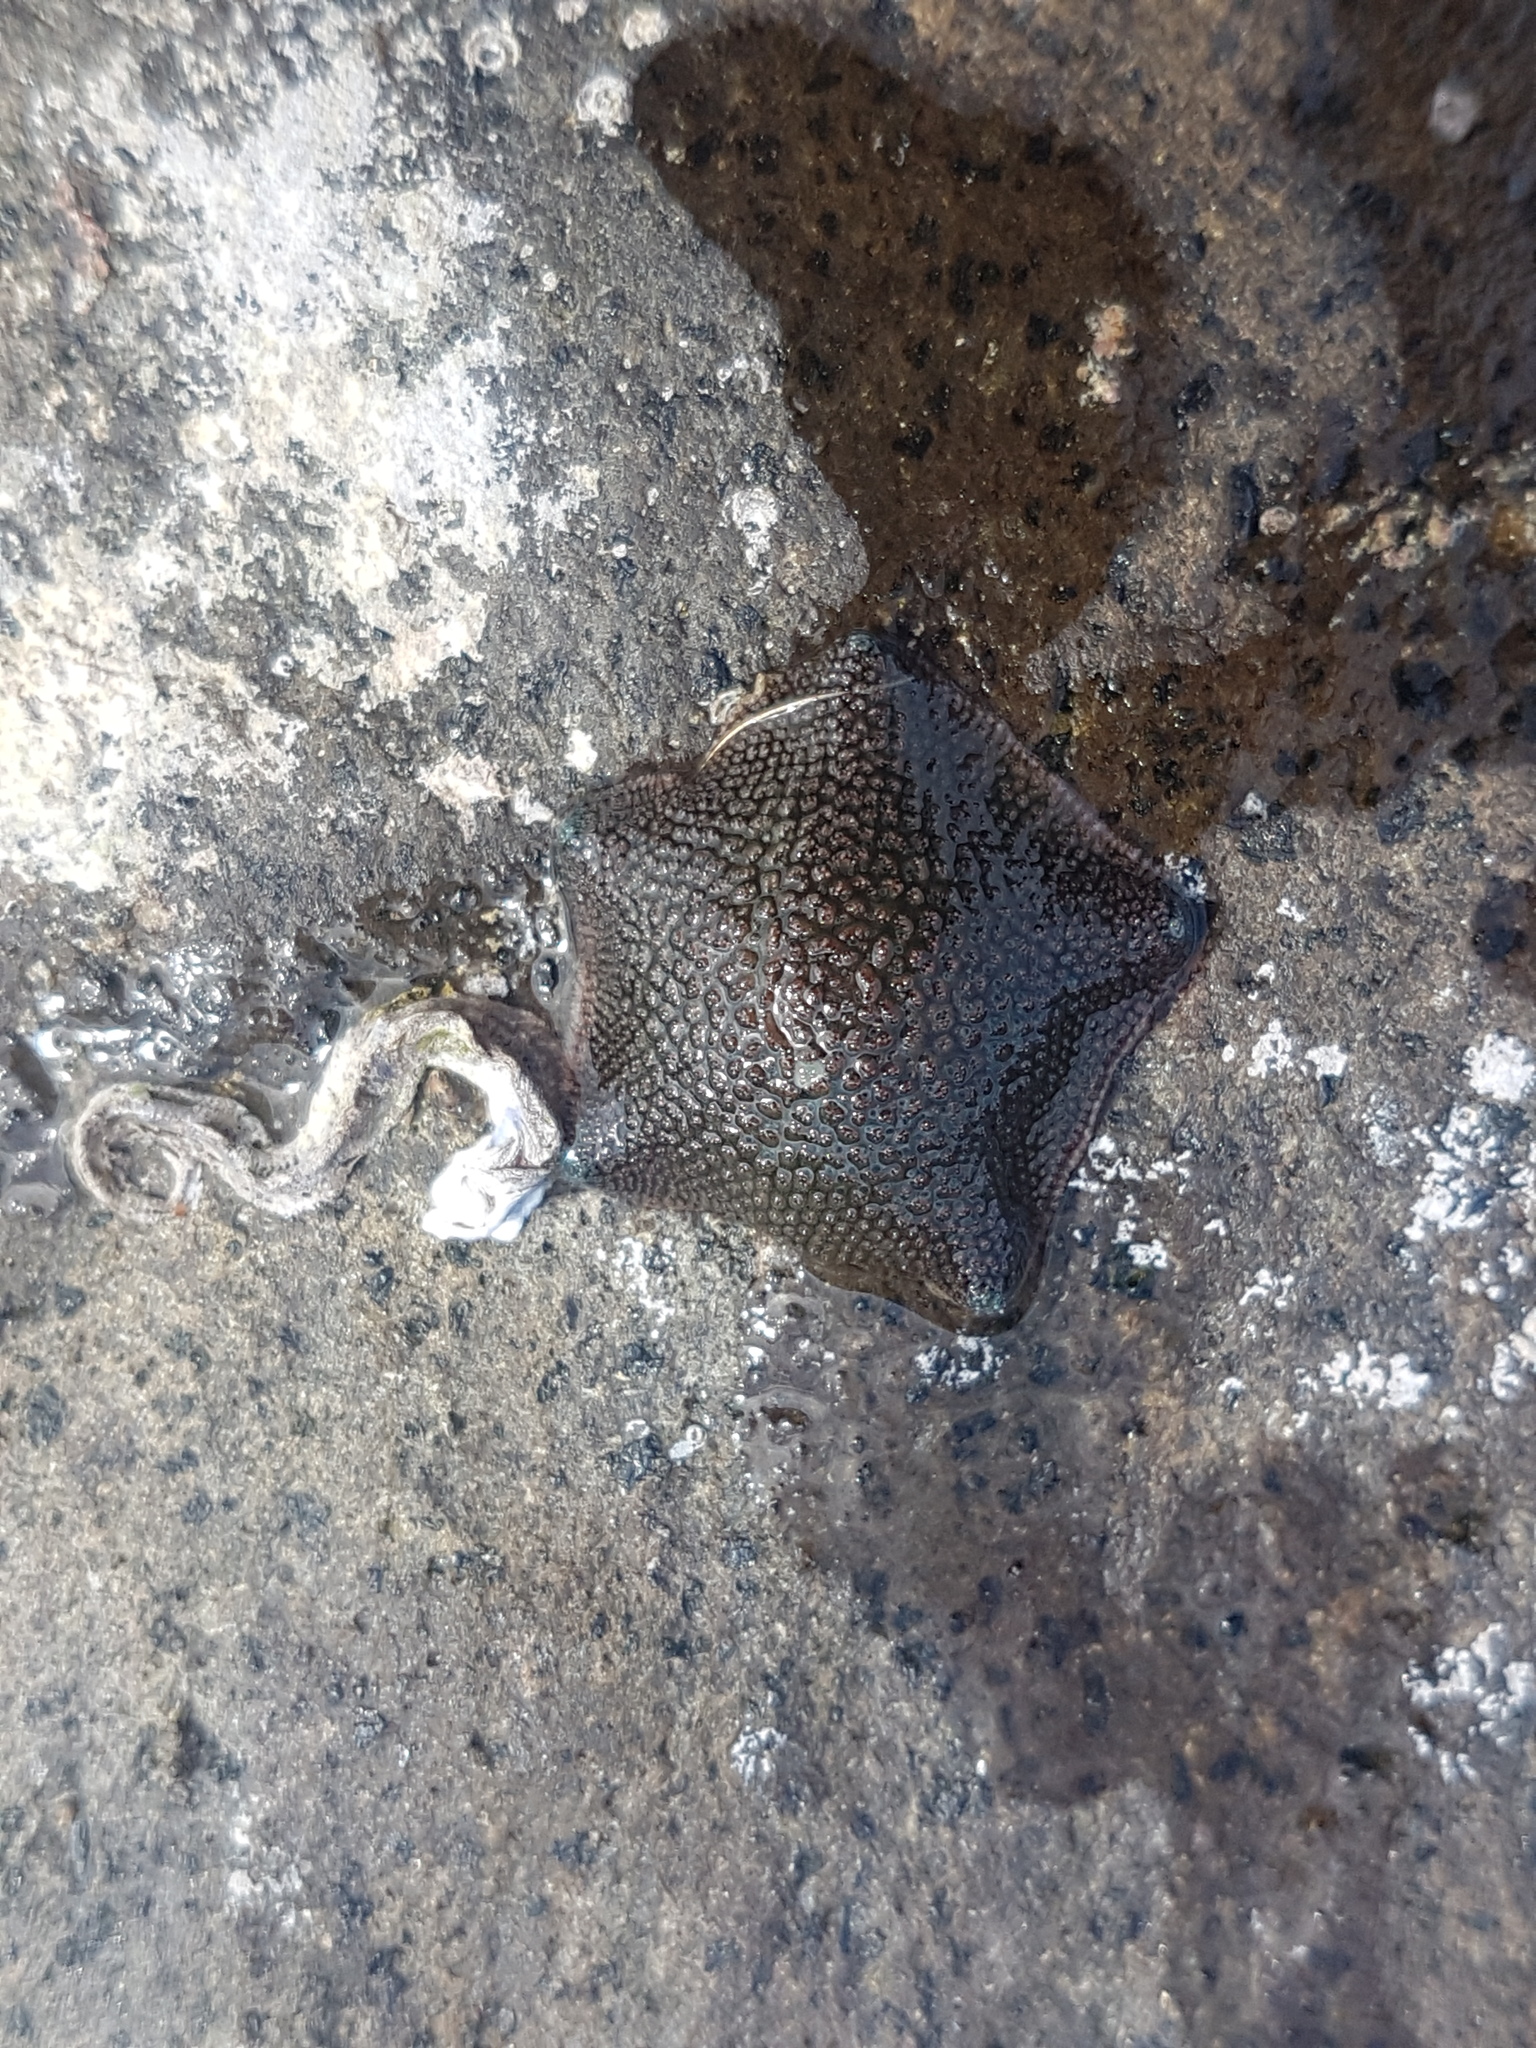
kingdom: Animalia
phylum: Echinodermata
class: Asteroidea
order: Valvatida
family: Asterinidae
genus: Patiriella
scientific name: Patiriella regularis
